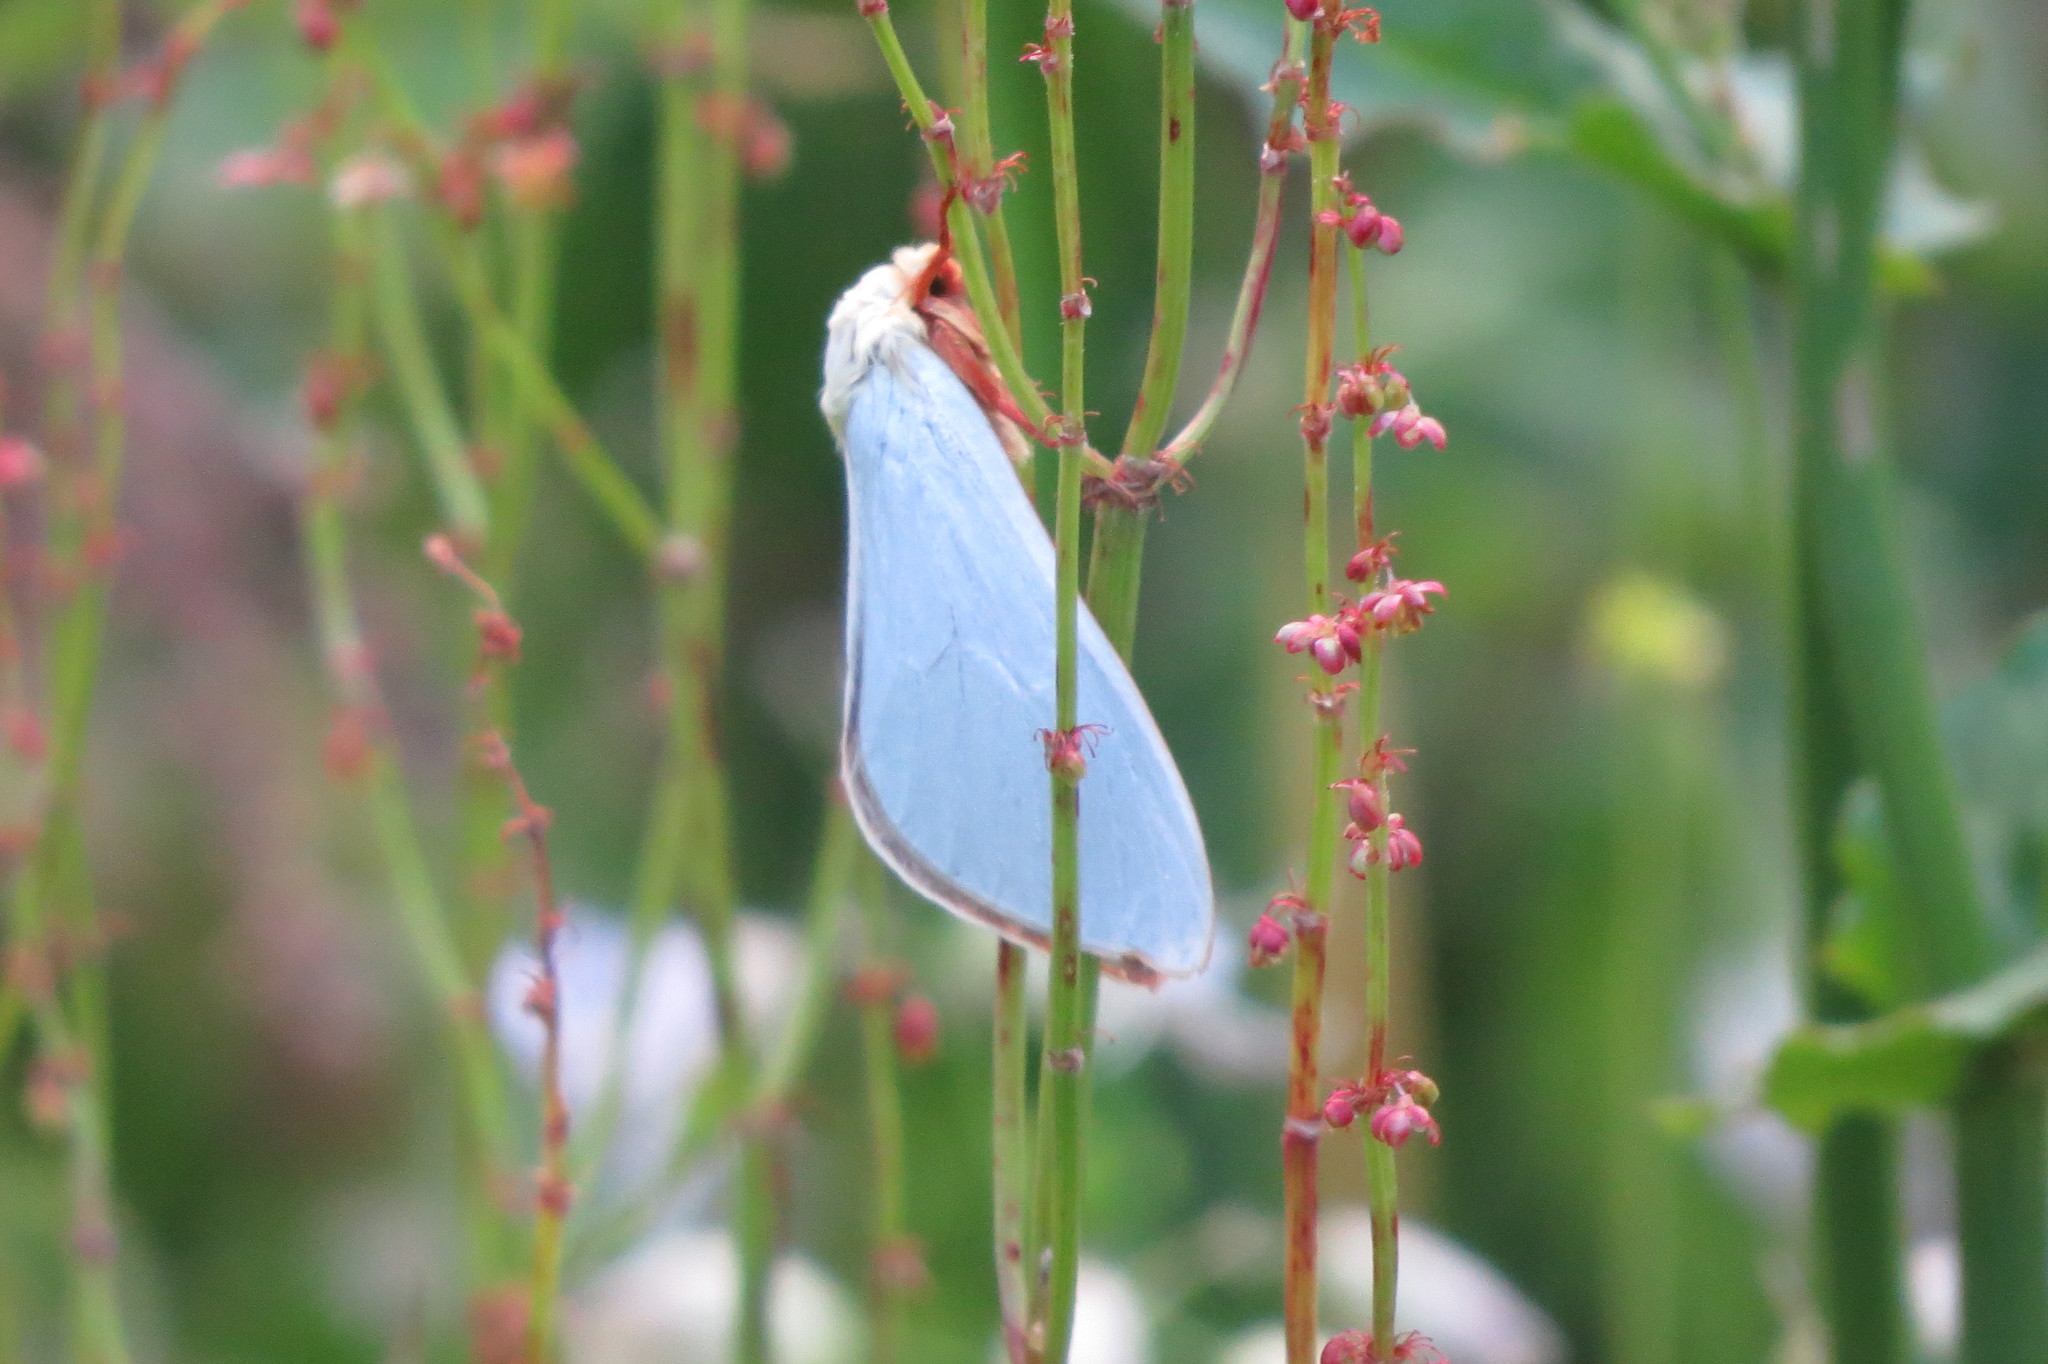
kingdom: Animalia
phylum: Arthropoda
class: Insecta
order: Lepidoptera
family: Hepialidae
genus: Hepialus
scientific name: Hepialus humuli
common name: Ghost moth
